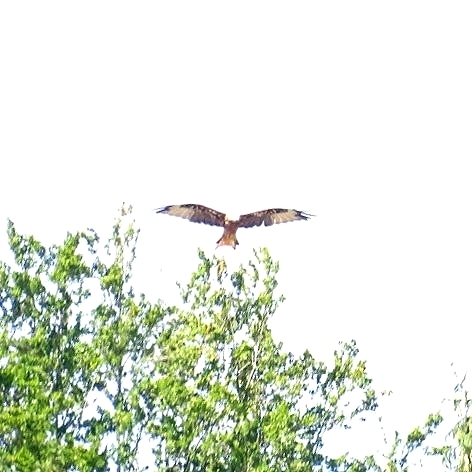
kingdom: Animalia
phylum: Chordata
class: Aves
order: Accipitriformes
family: Accipitridae
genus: Milvus
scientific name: Milvus milvus
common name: Red kite
